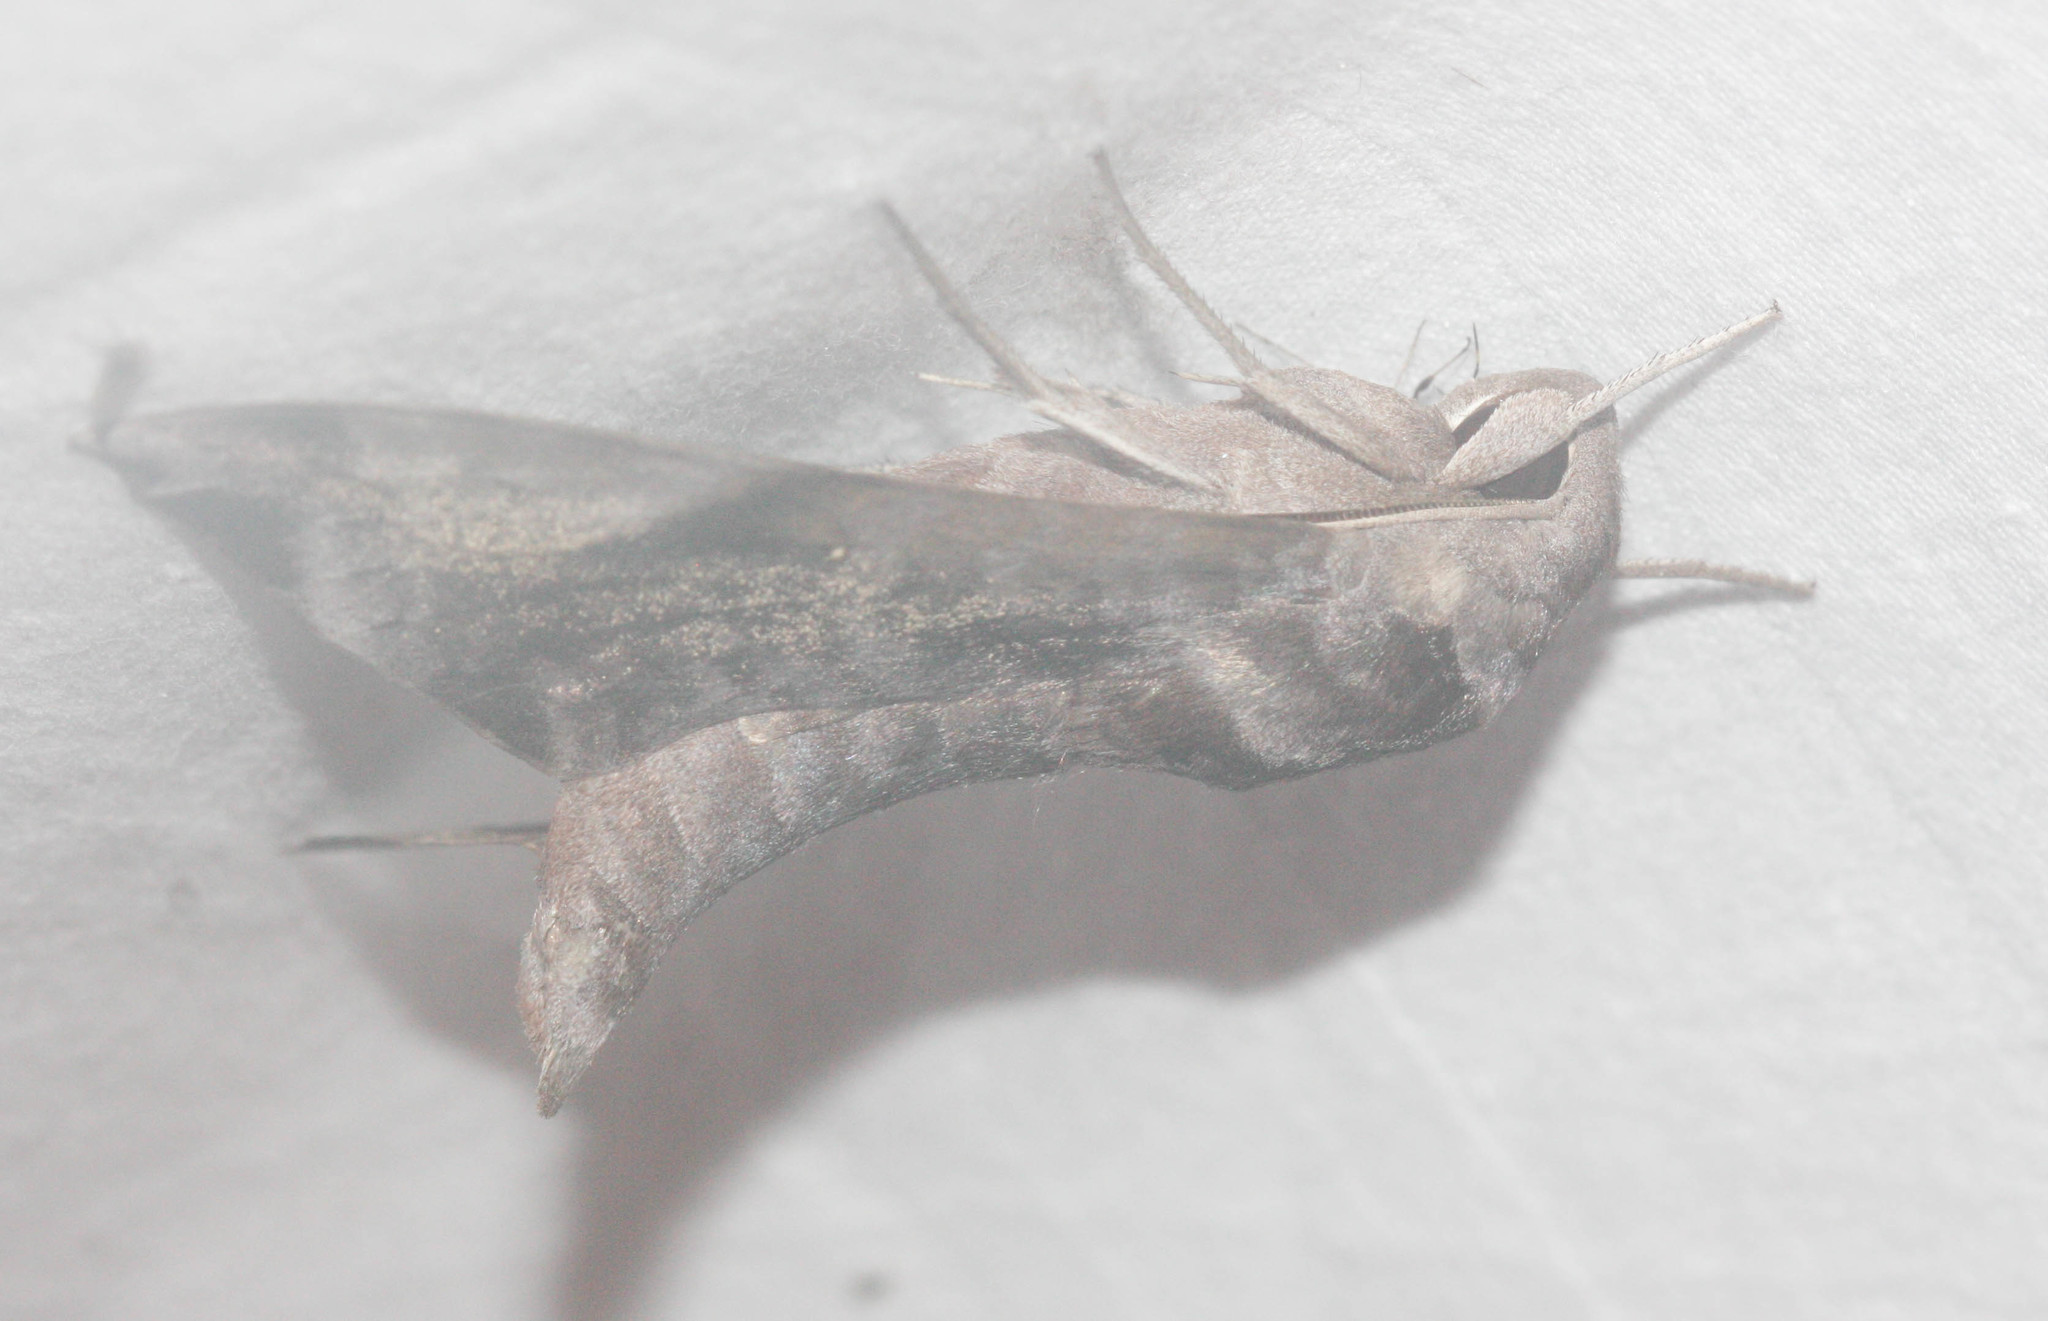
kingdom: Animalia
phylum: Arthropoda
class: Insecta
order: Lepidoptera
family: Sphingidae
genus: Acosmeryx
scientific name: Acosmeryx pseudonaga
